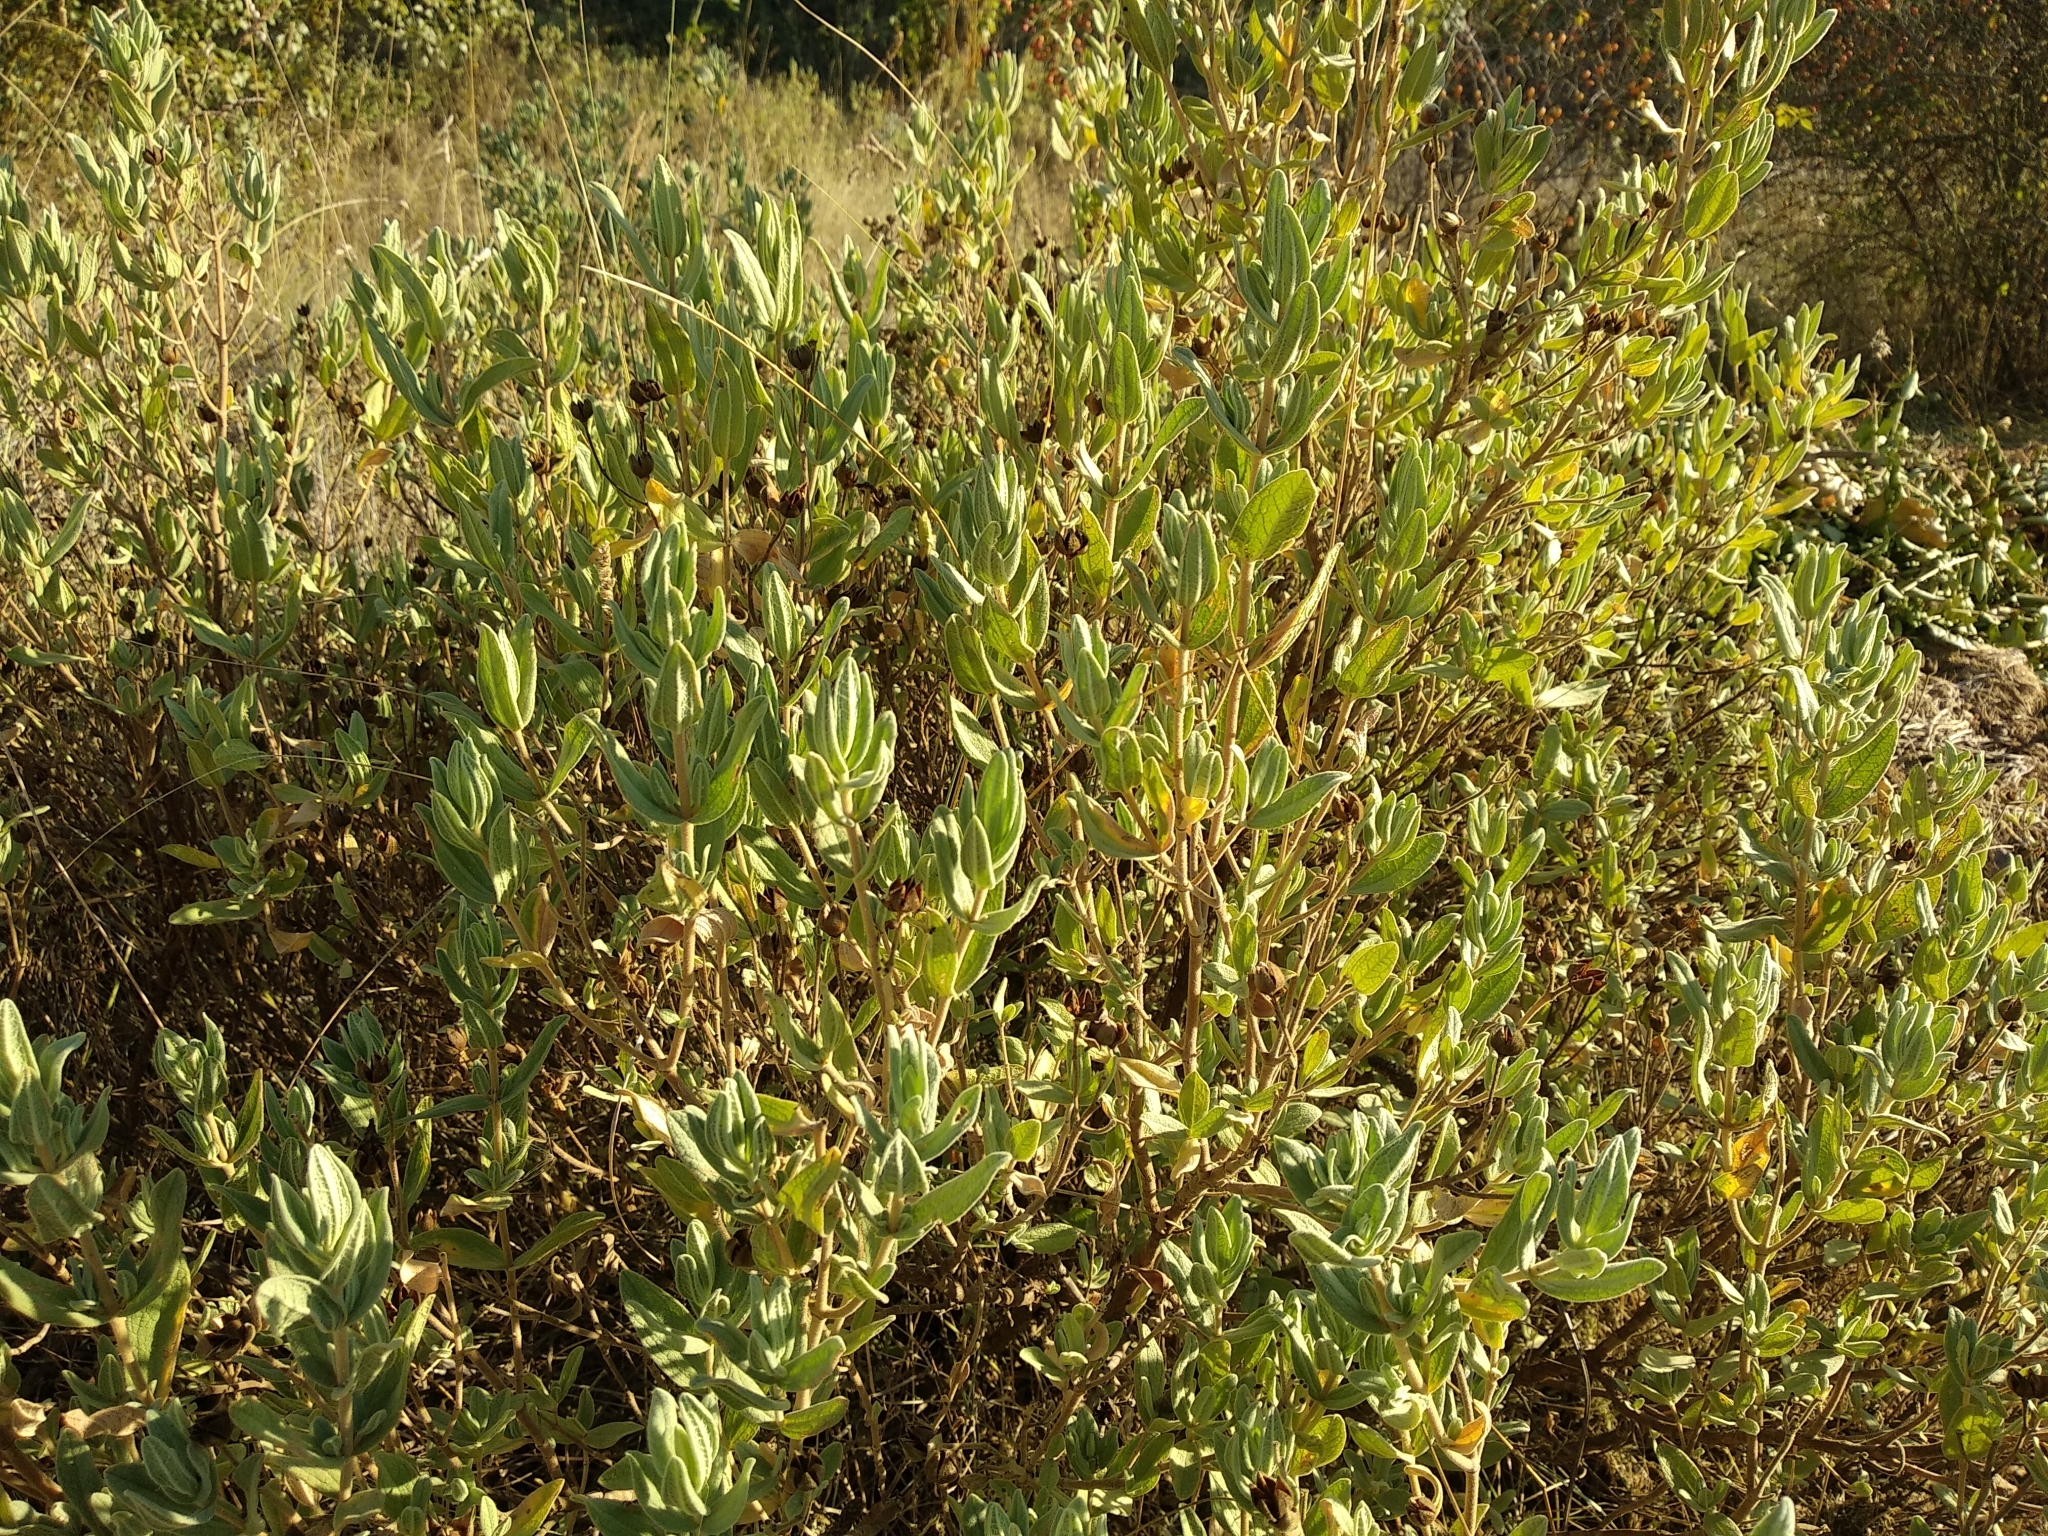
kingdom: Plantae
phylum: Tracheophyta
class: Magnoliopsida
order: Malvales
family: Cistaceae
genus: Cistus
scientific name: Cistus albidus
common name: White-leaf rock-rose
